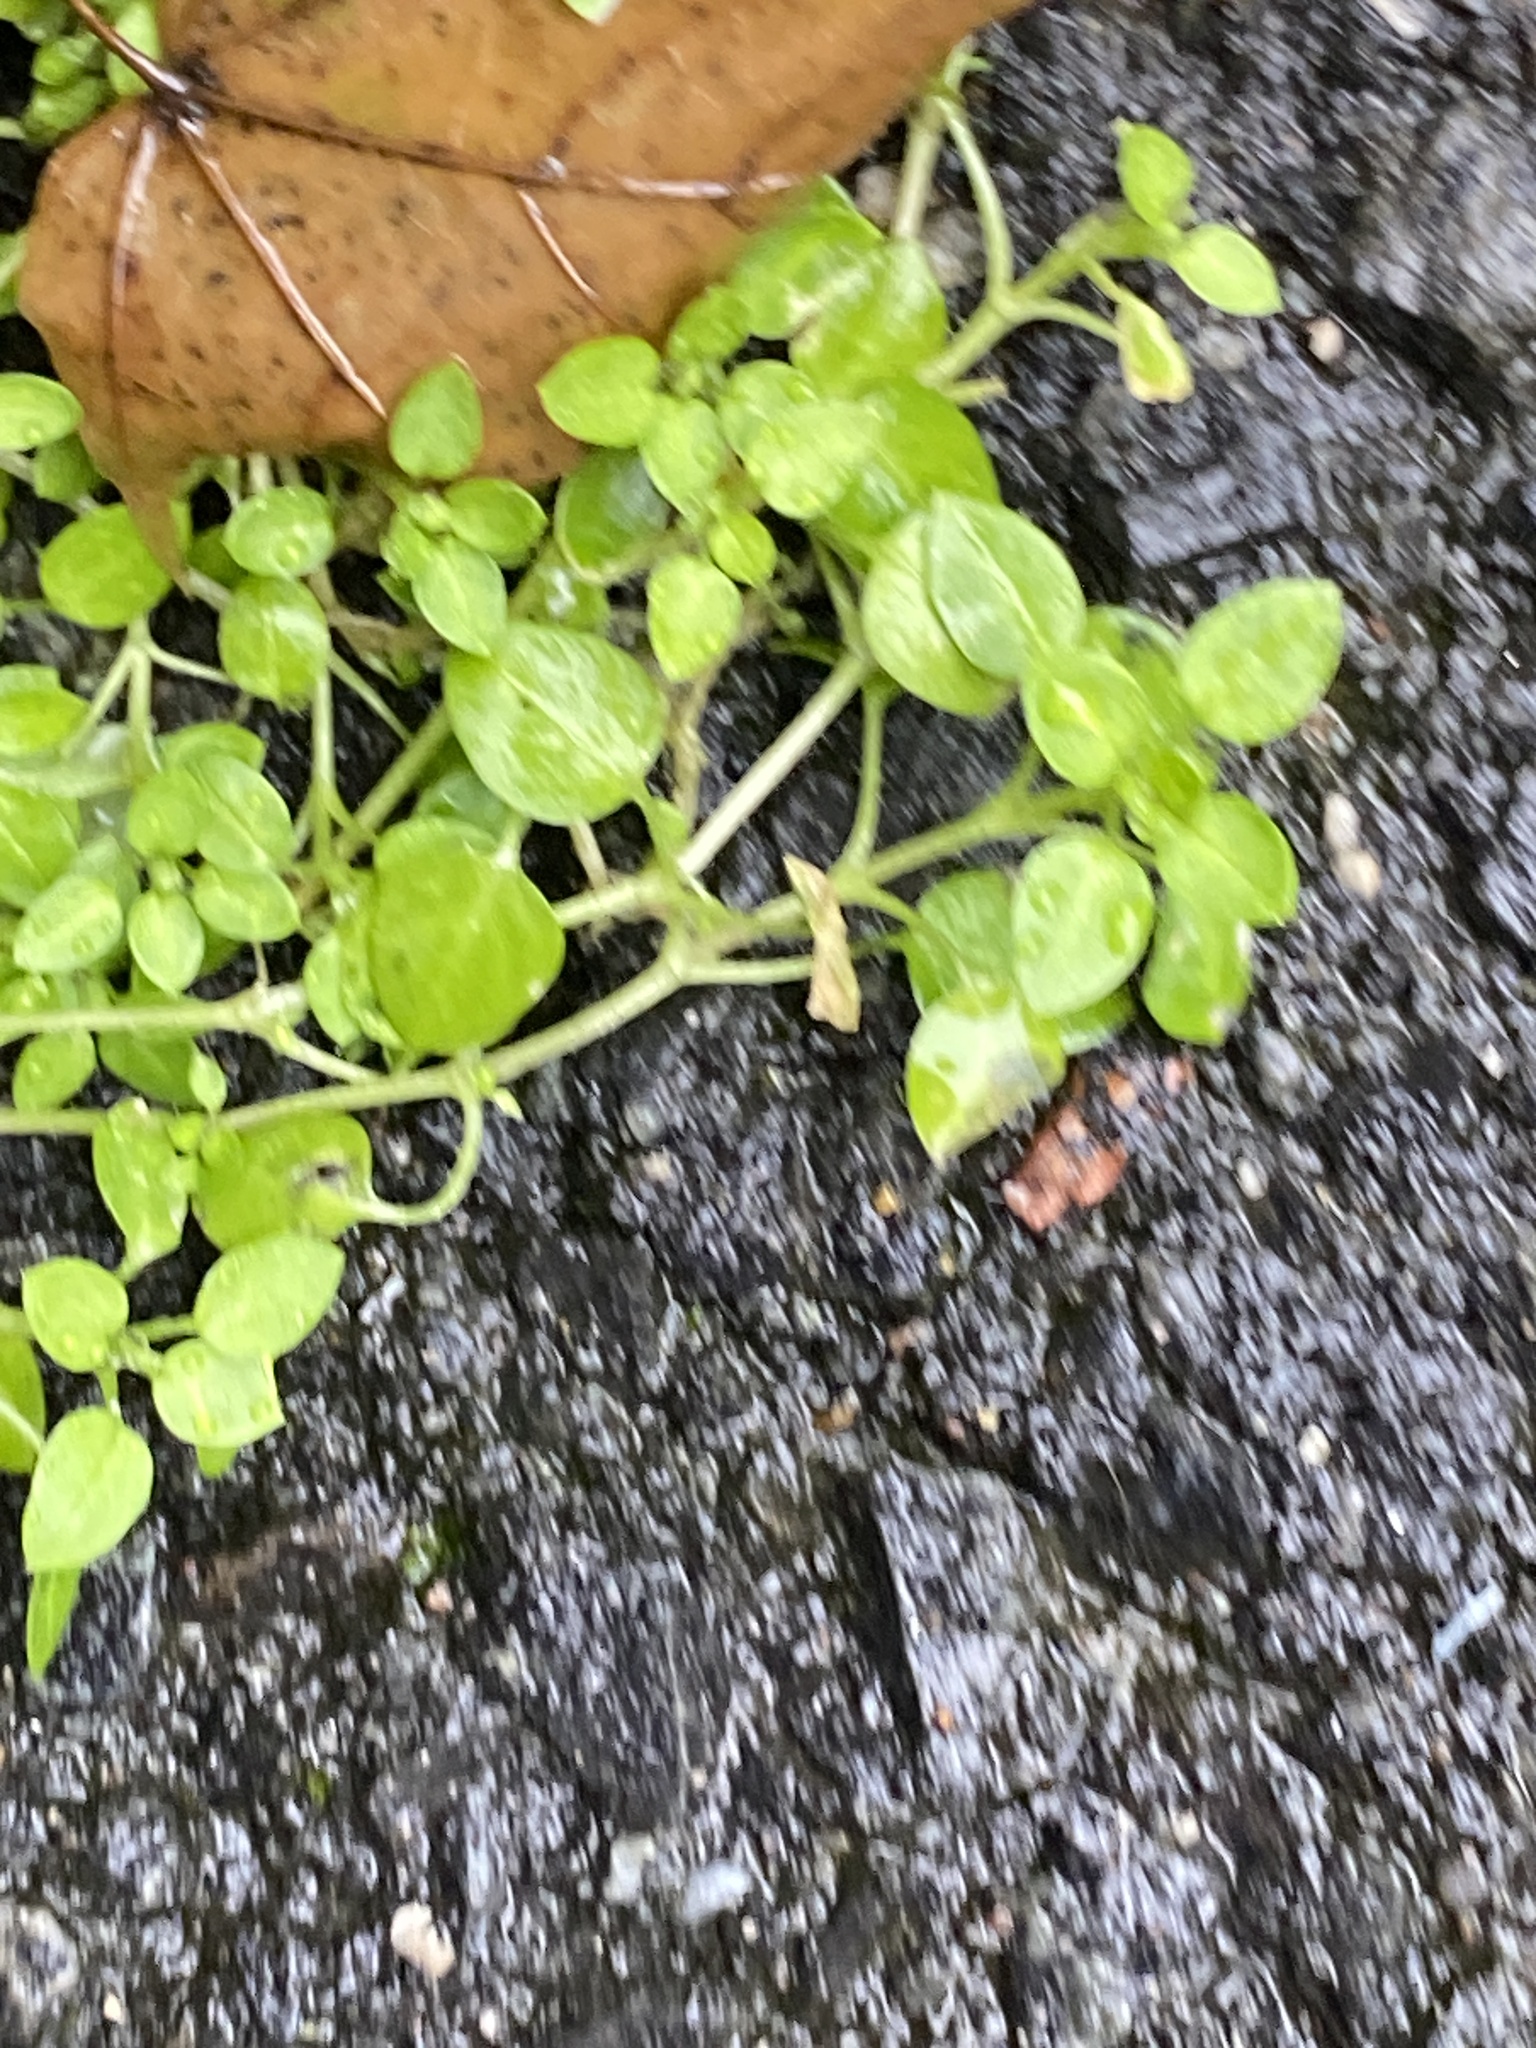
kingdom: Plantae
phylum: Tracheophyta
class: Magnoliopsida
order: Caryophyllales
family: Caryophyllaceae
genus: Stellaria
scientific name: Stellaria media
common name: Common chickweed
